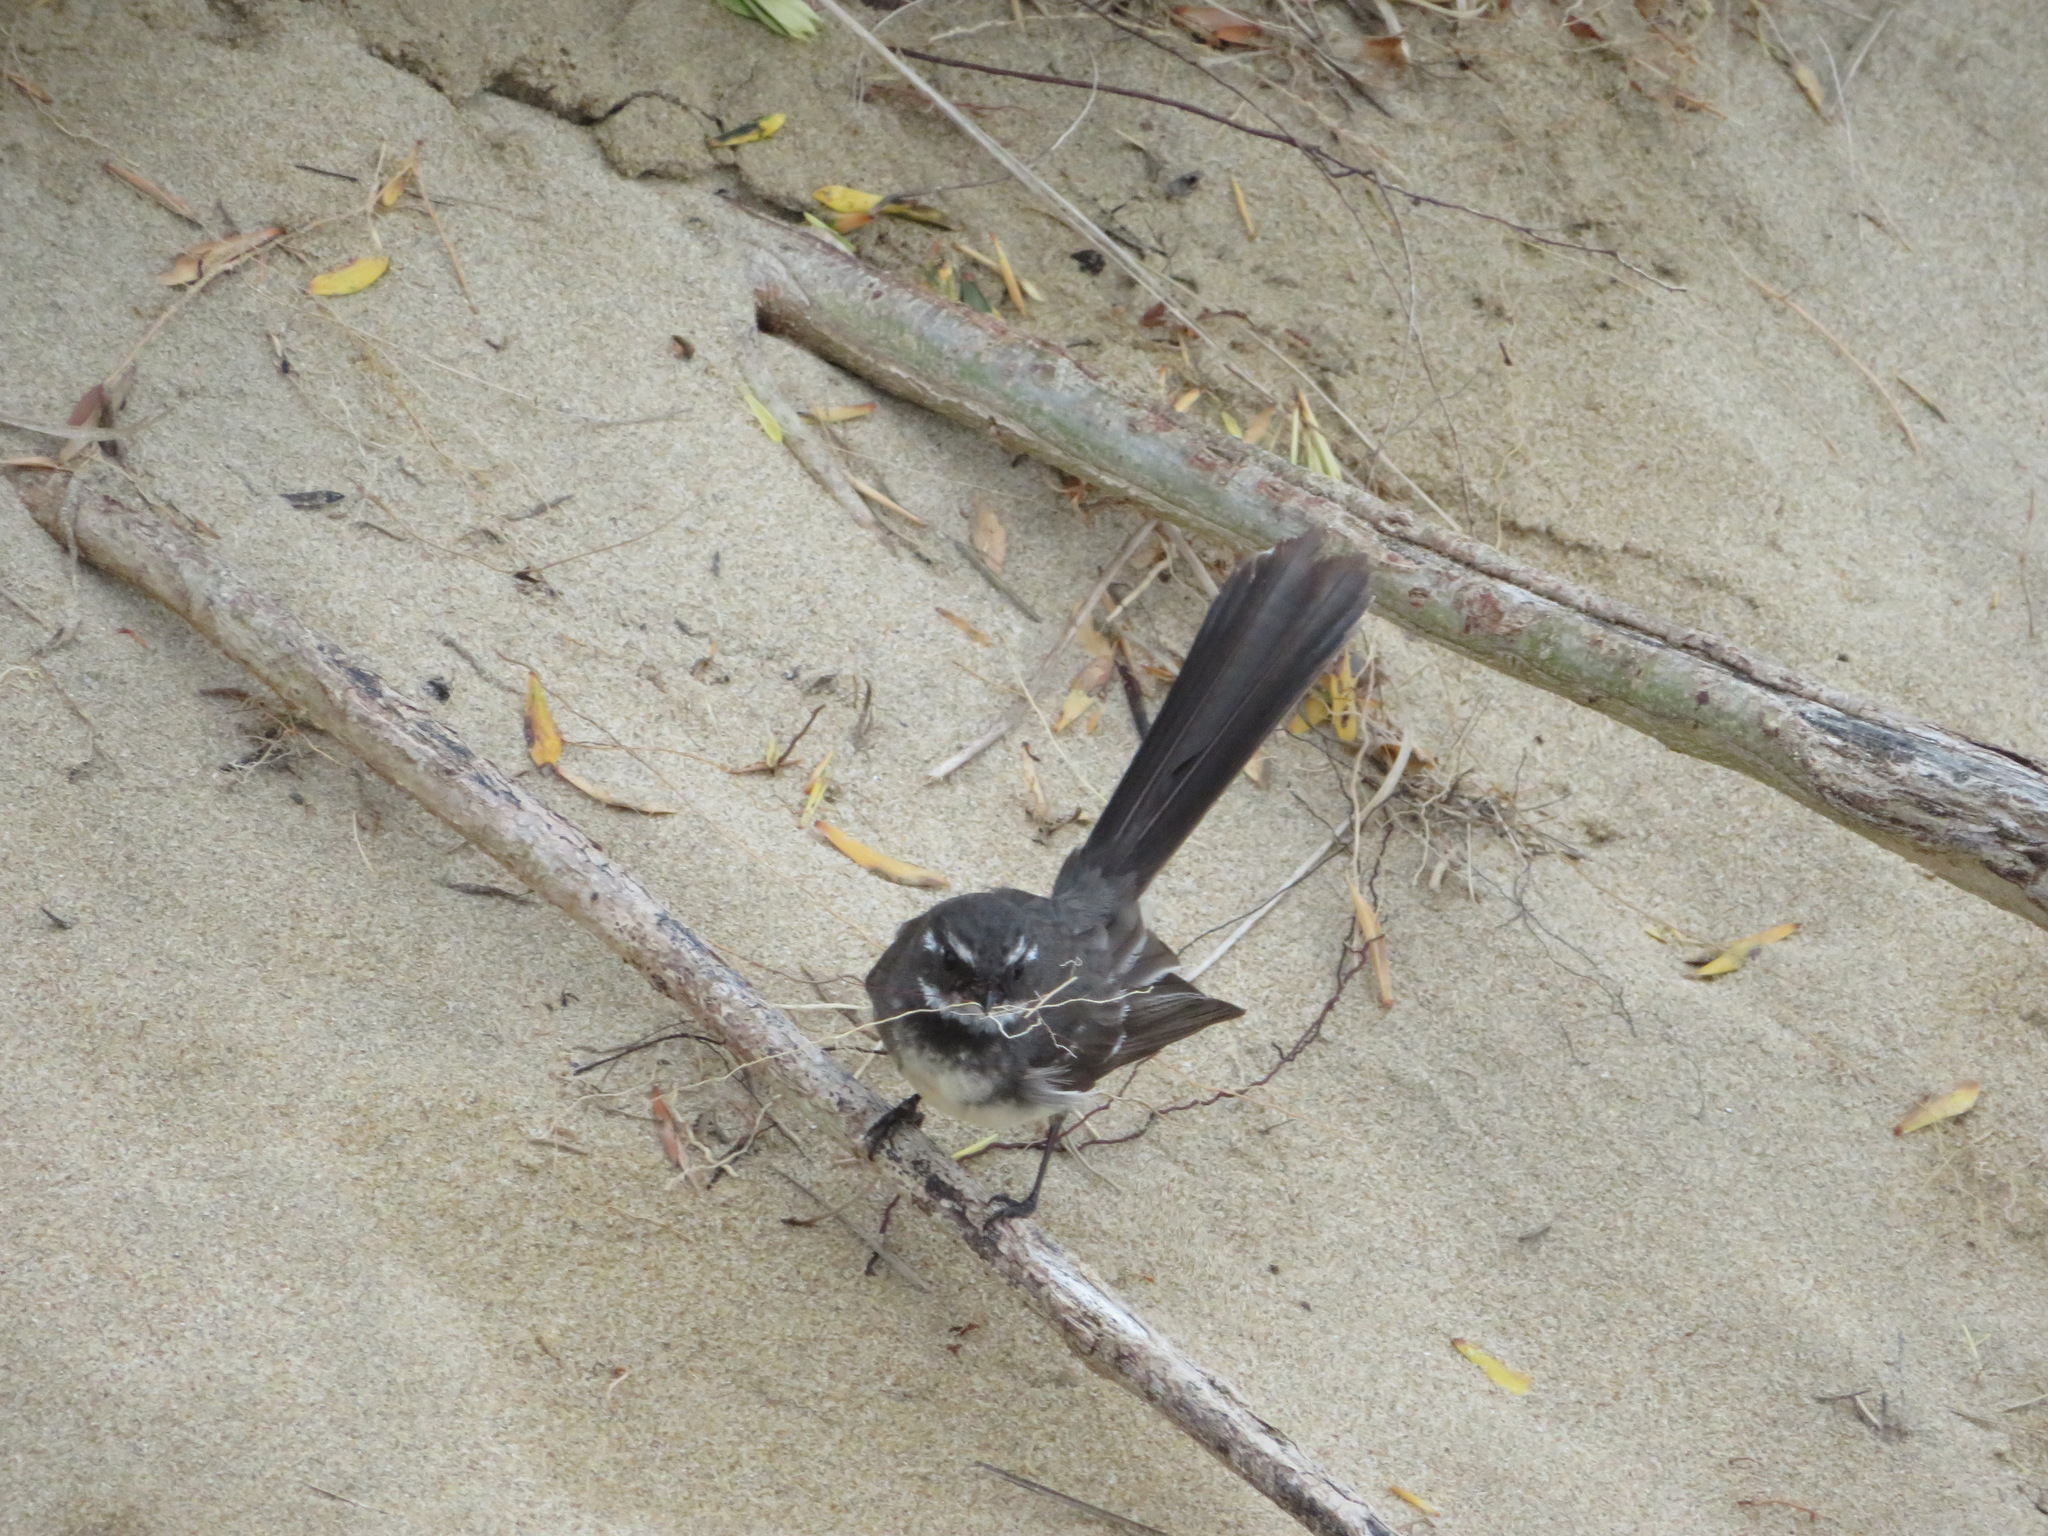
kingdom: Animalia
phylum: Chordata
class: Aves
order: Passeriformes
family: Rhipiduridae
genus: Rhipidura
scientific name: Rhipidura albiscapa
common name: Grey fantail
